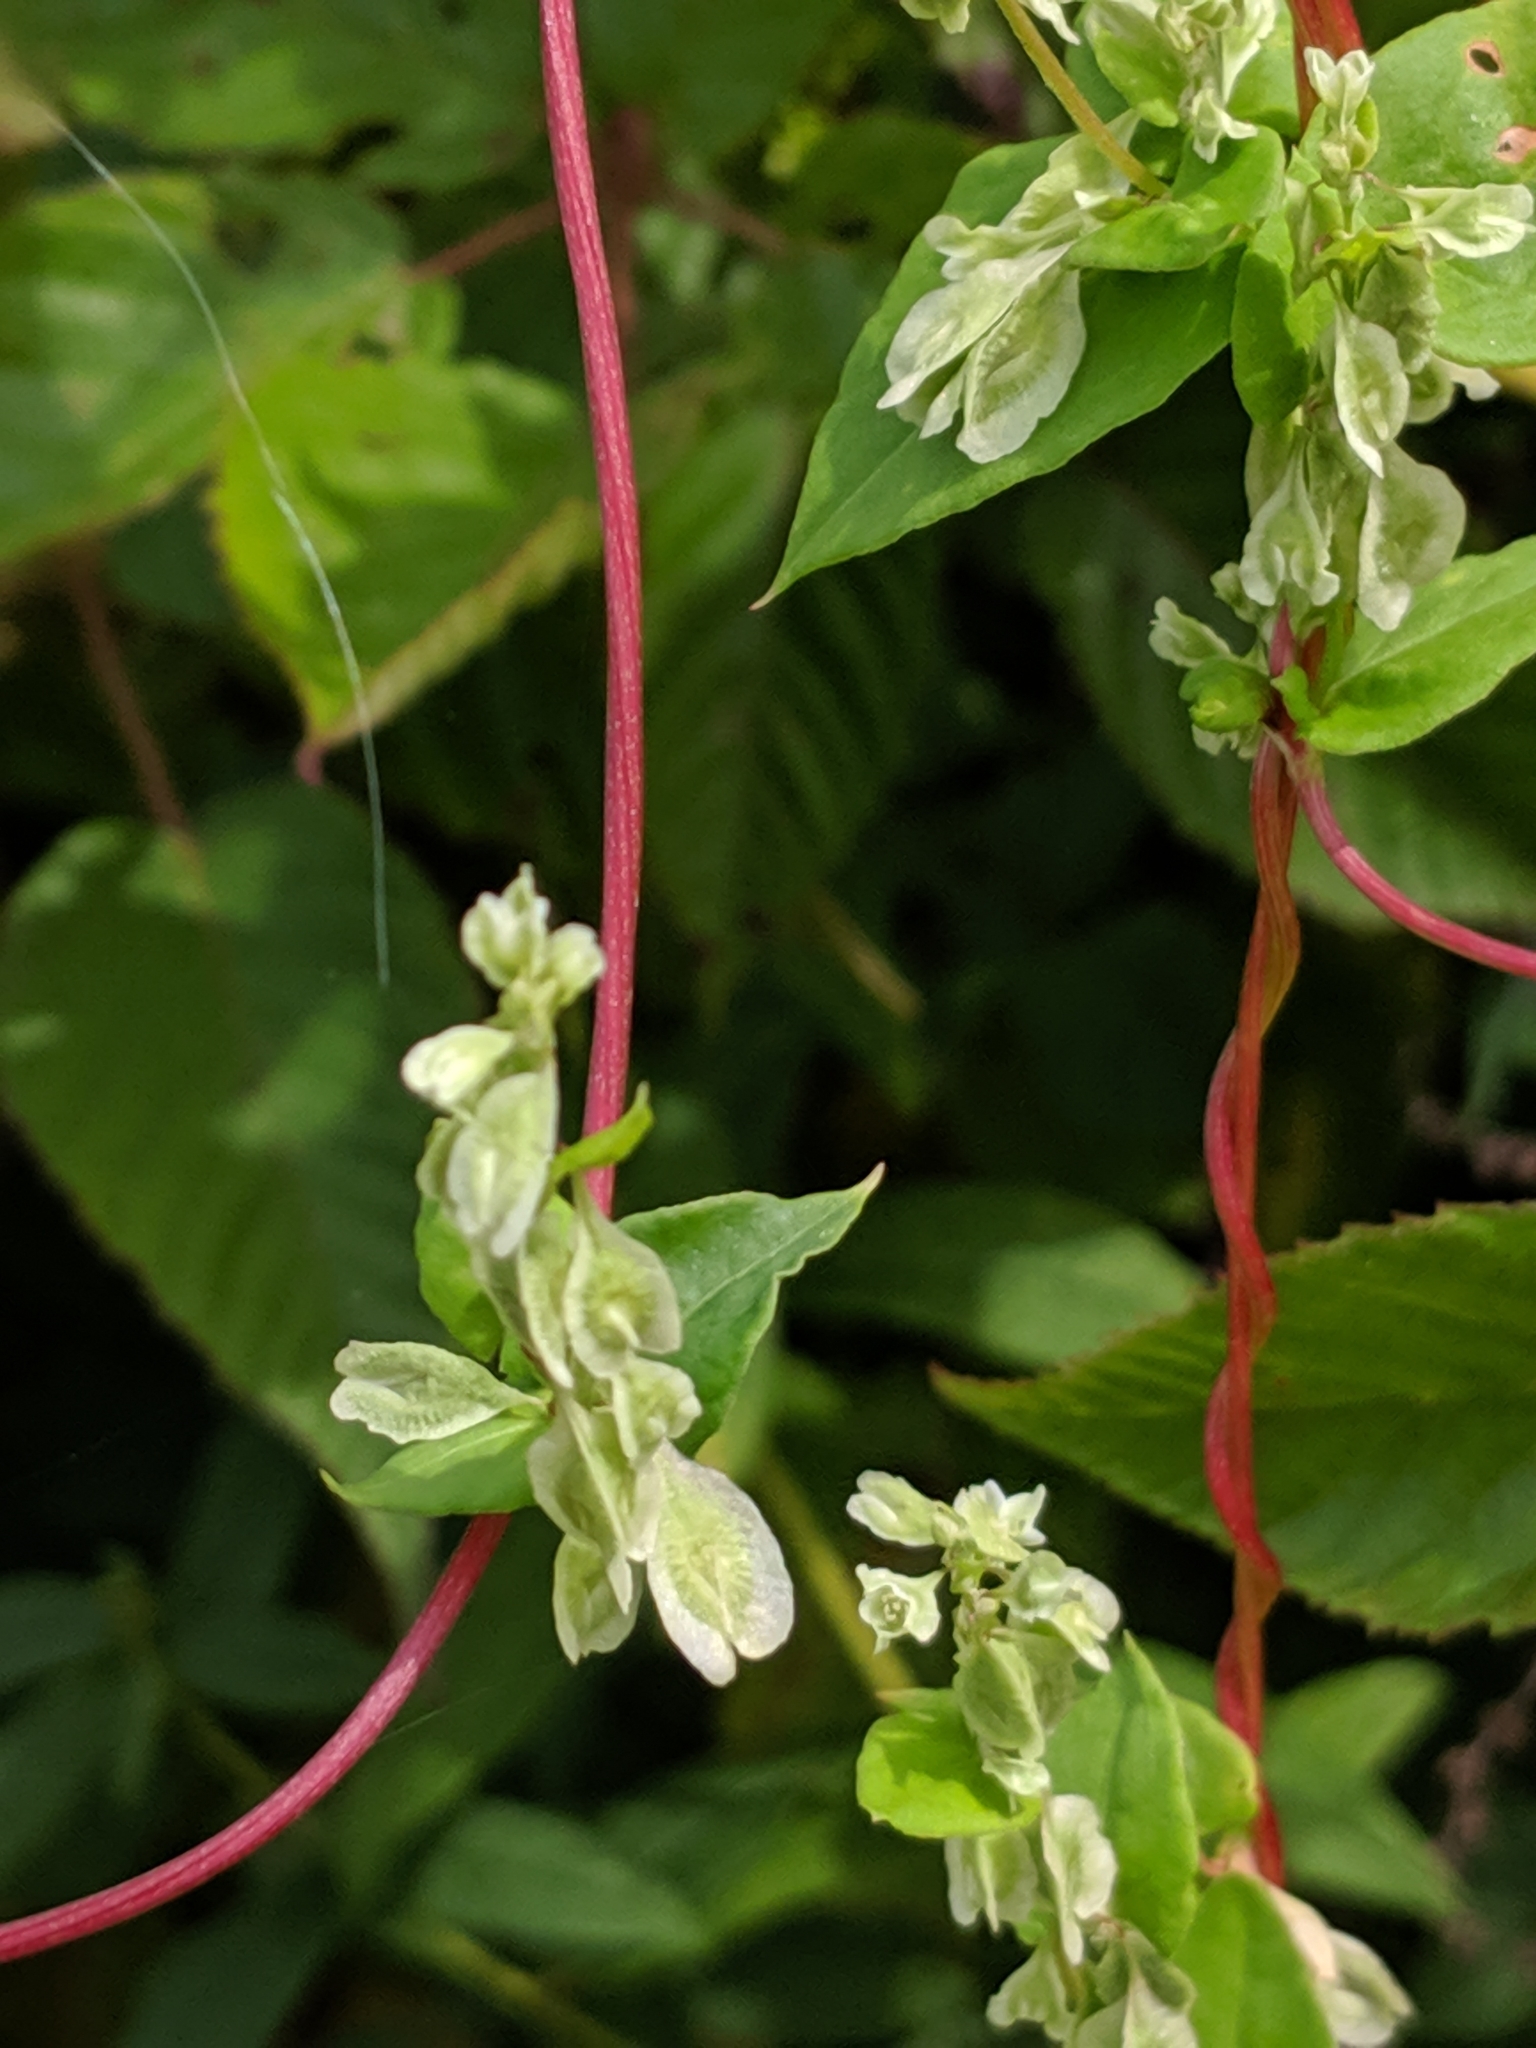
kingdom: Plantae
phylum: Tracheophyta
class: Magnoliopsida
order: Caryophyllales
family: Polygonaceae
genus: Fallopia
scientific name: Fallopia scandens
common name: Climbing false buckwheat
